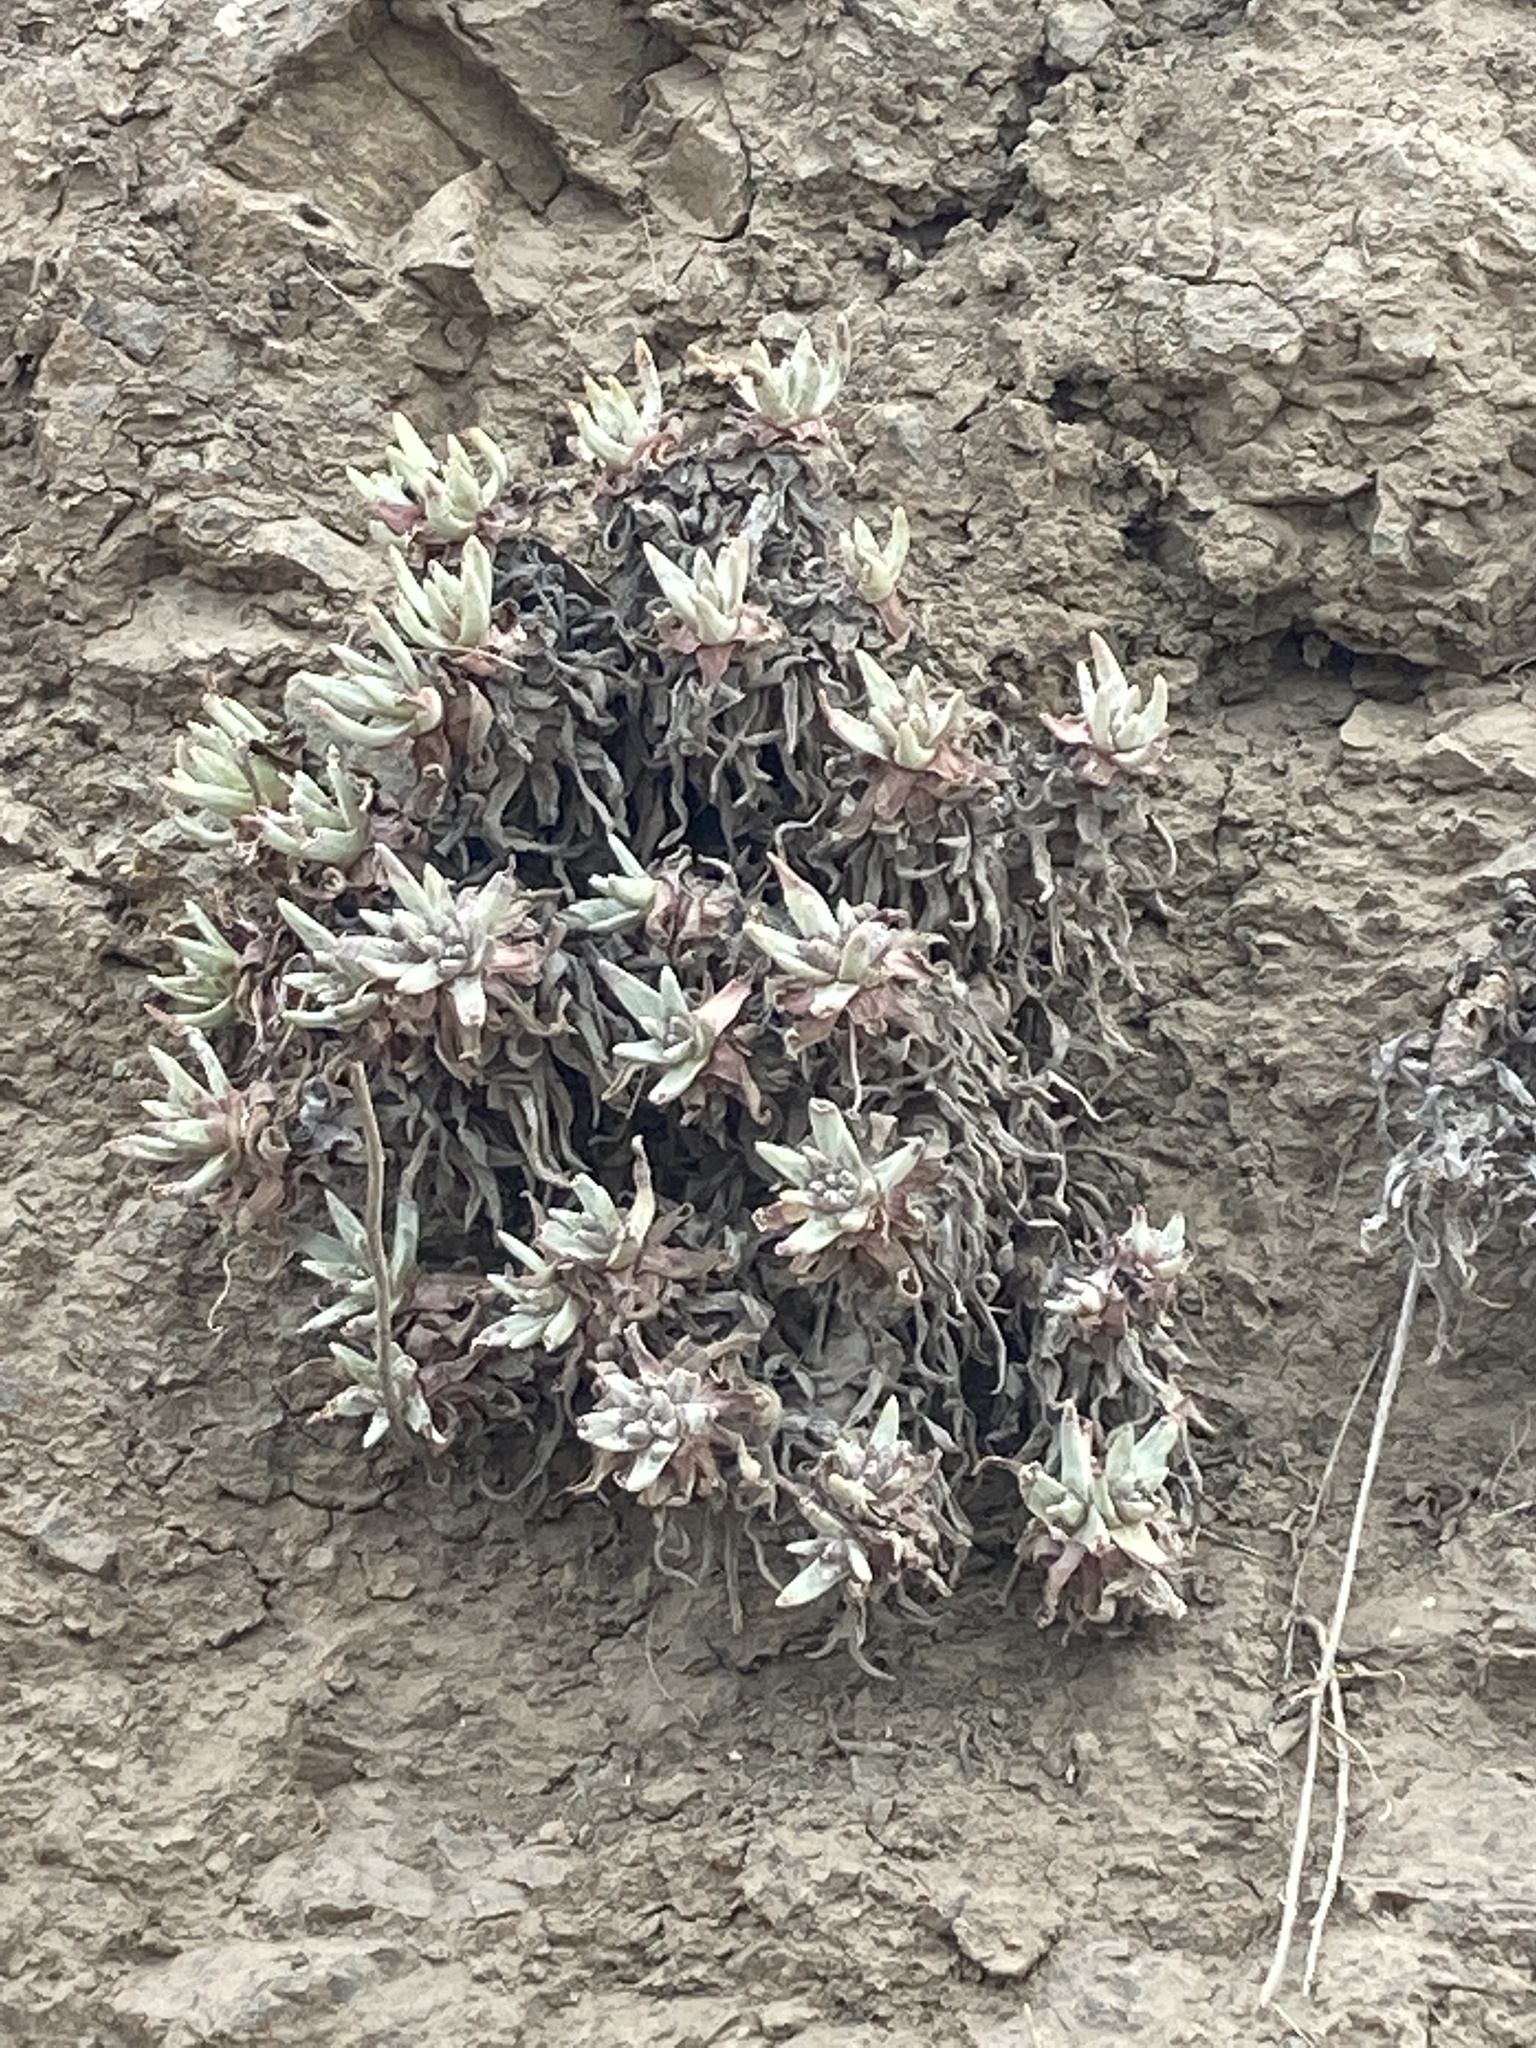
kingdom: Plantae
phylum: Tracheophyta
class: Magnoliopsida
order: Saxifragales
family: Crassulaceae
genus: Dudleya
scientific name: Dudleya virens
